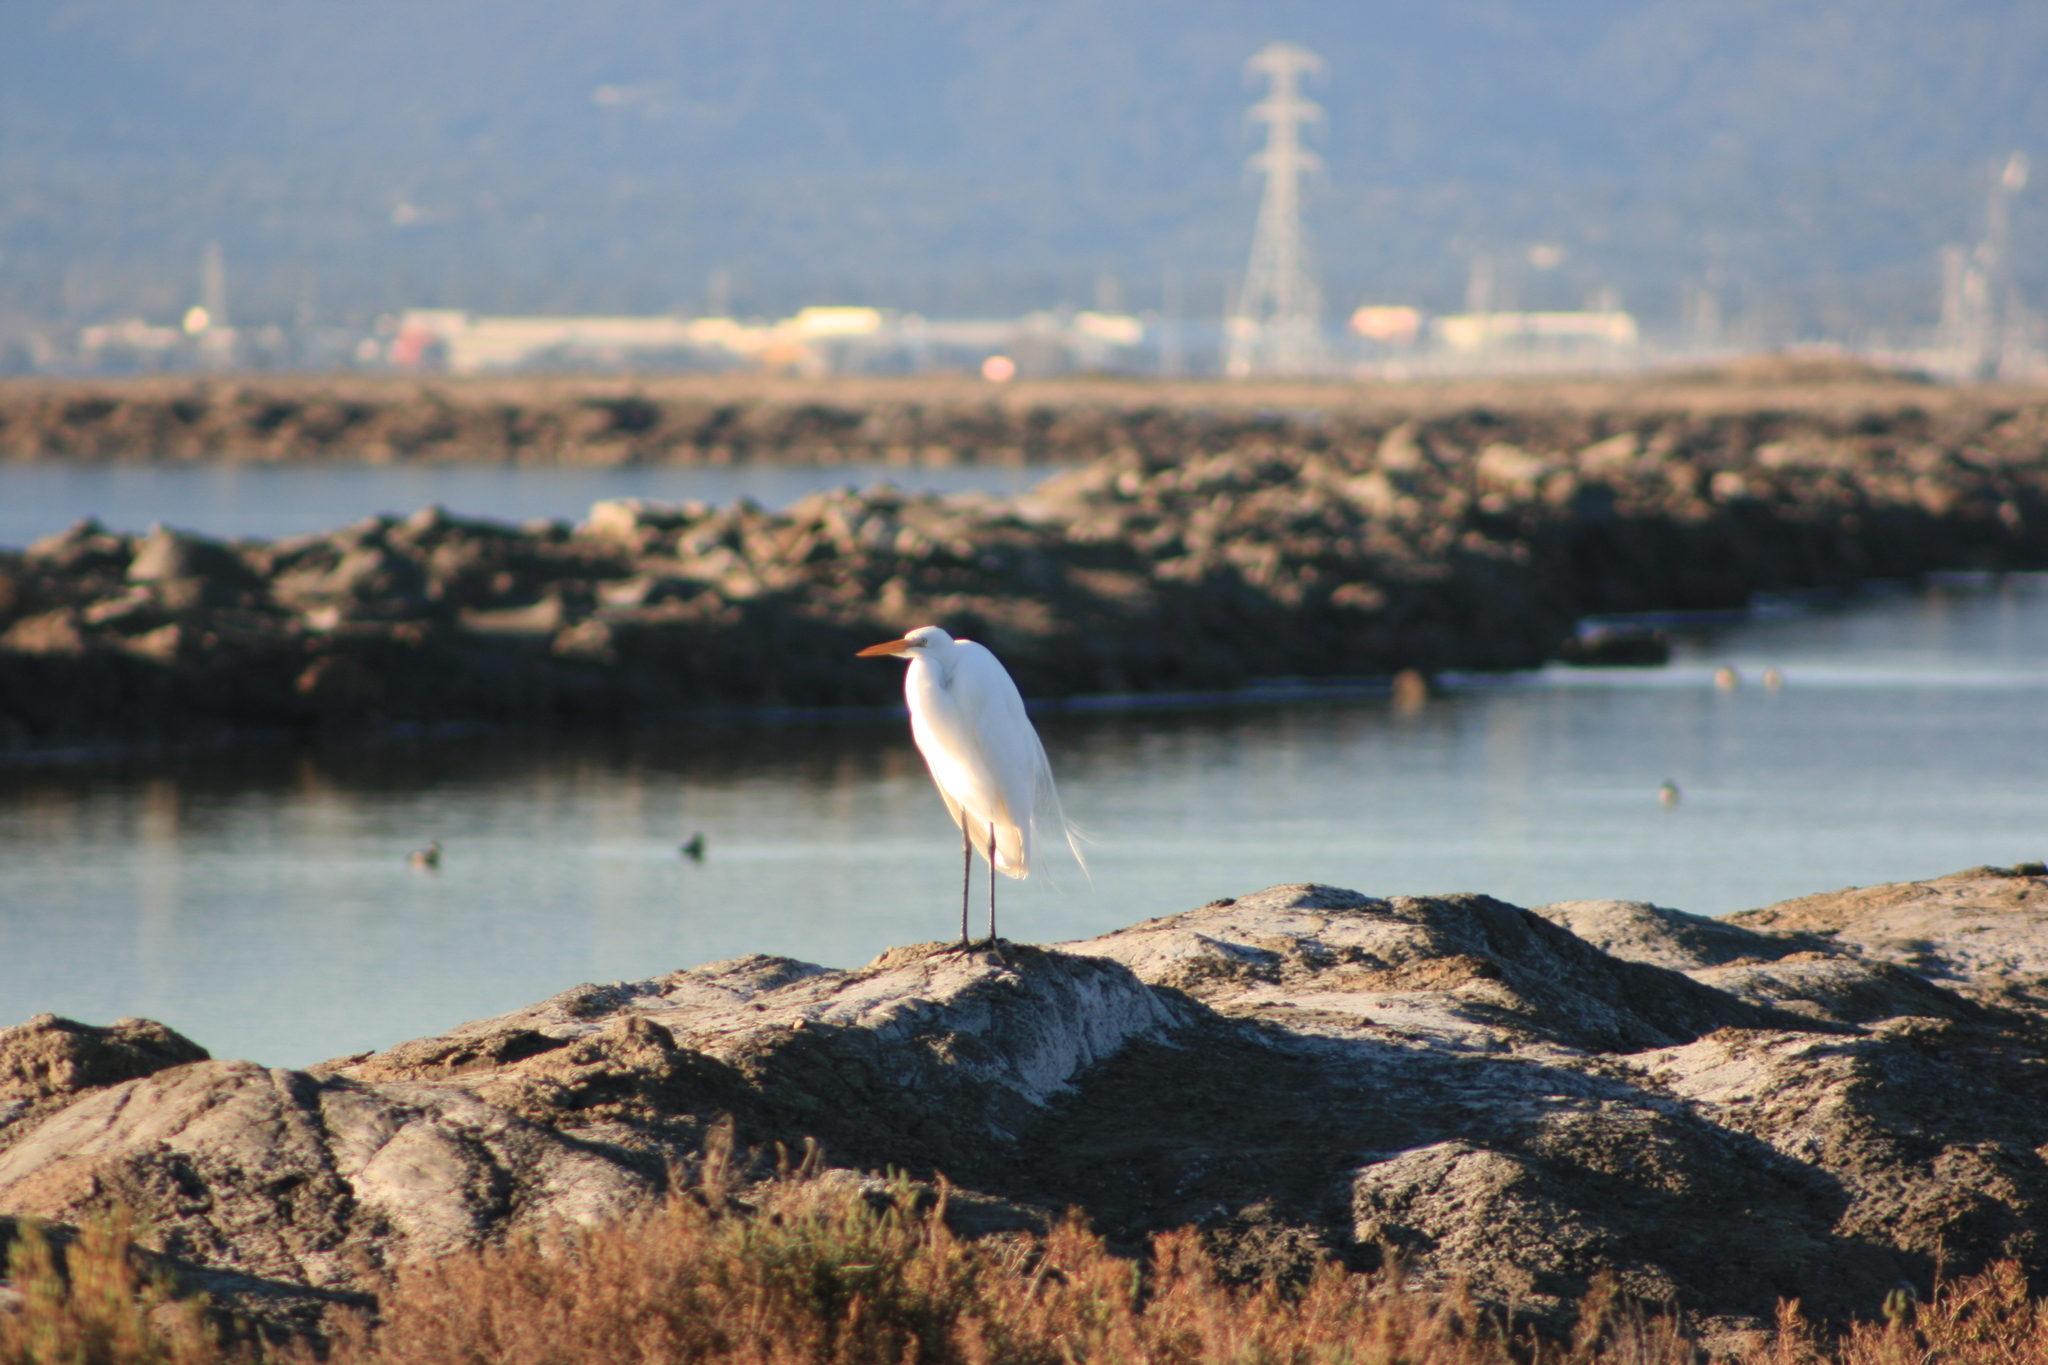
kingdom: Animalia
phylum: Chordata
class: Aves
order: Pelecaniformes
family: Ardeidae
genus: Ardea
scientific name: Ardea alba
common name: Great egret
